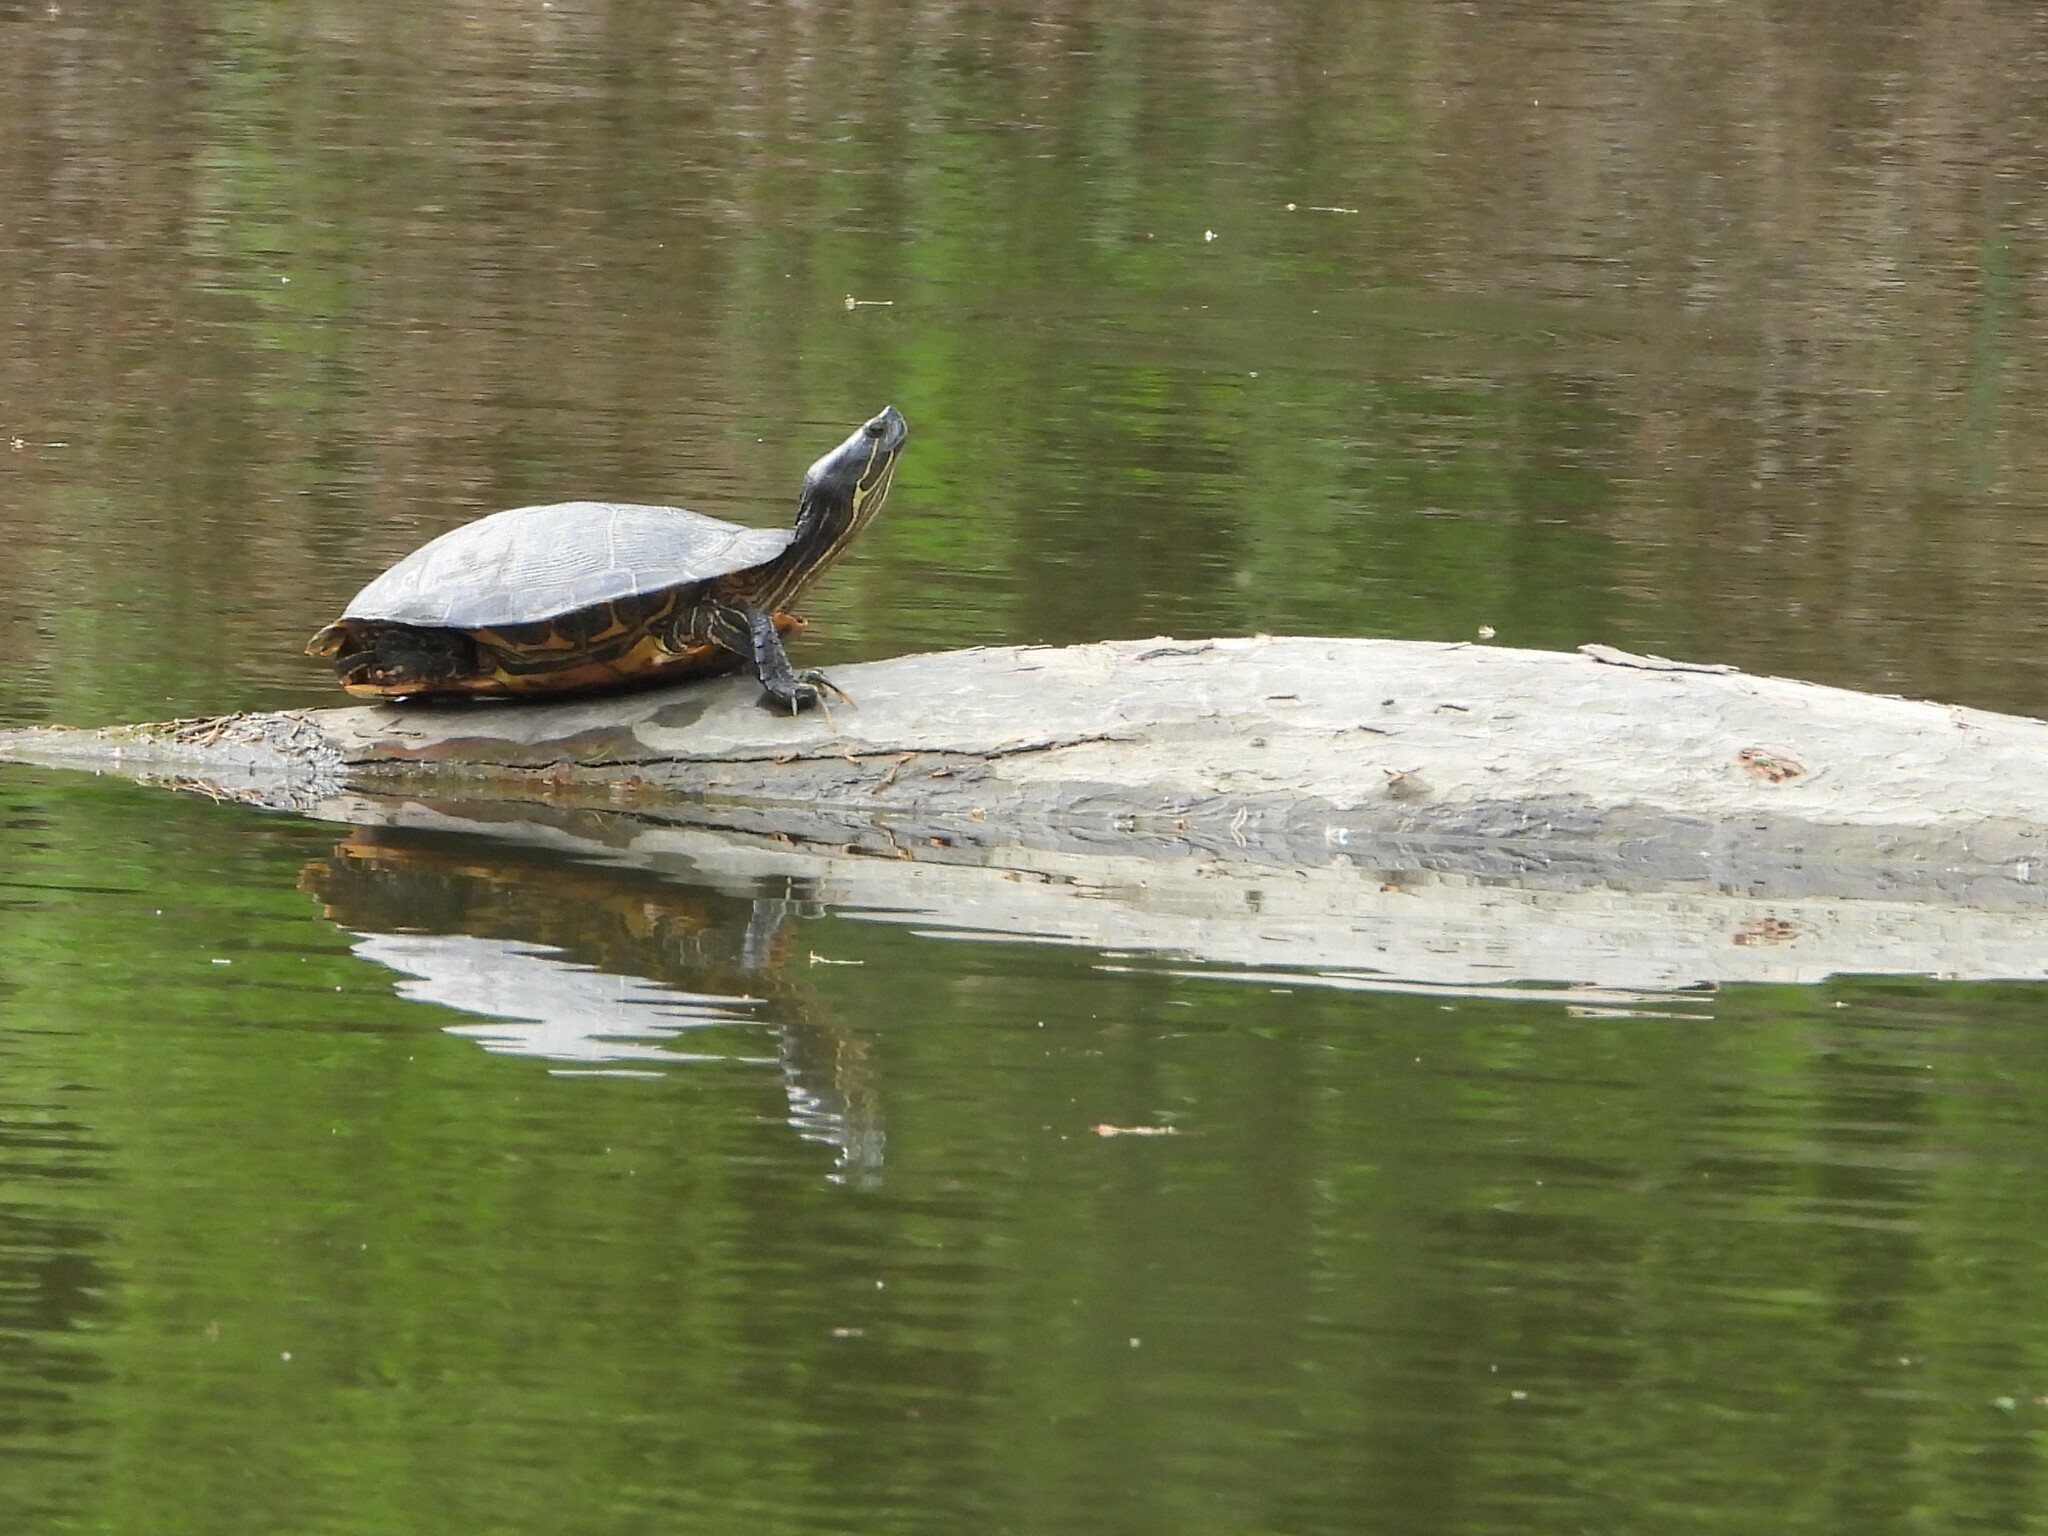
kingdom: Animalia
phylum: Chordata
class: Testudines
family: Emydidae
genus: Trachemys
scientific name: Trachemys scripta
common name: Slider
